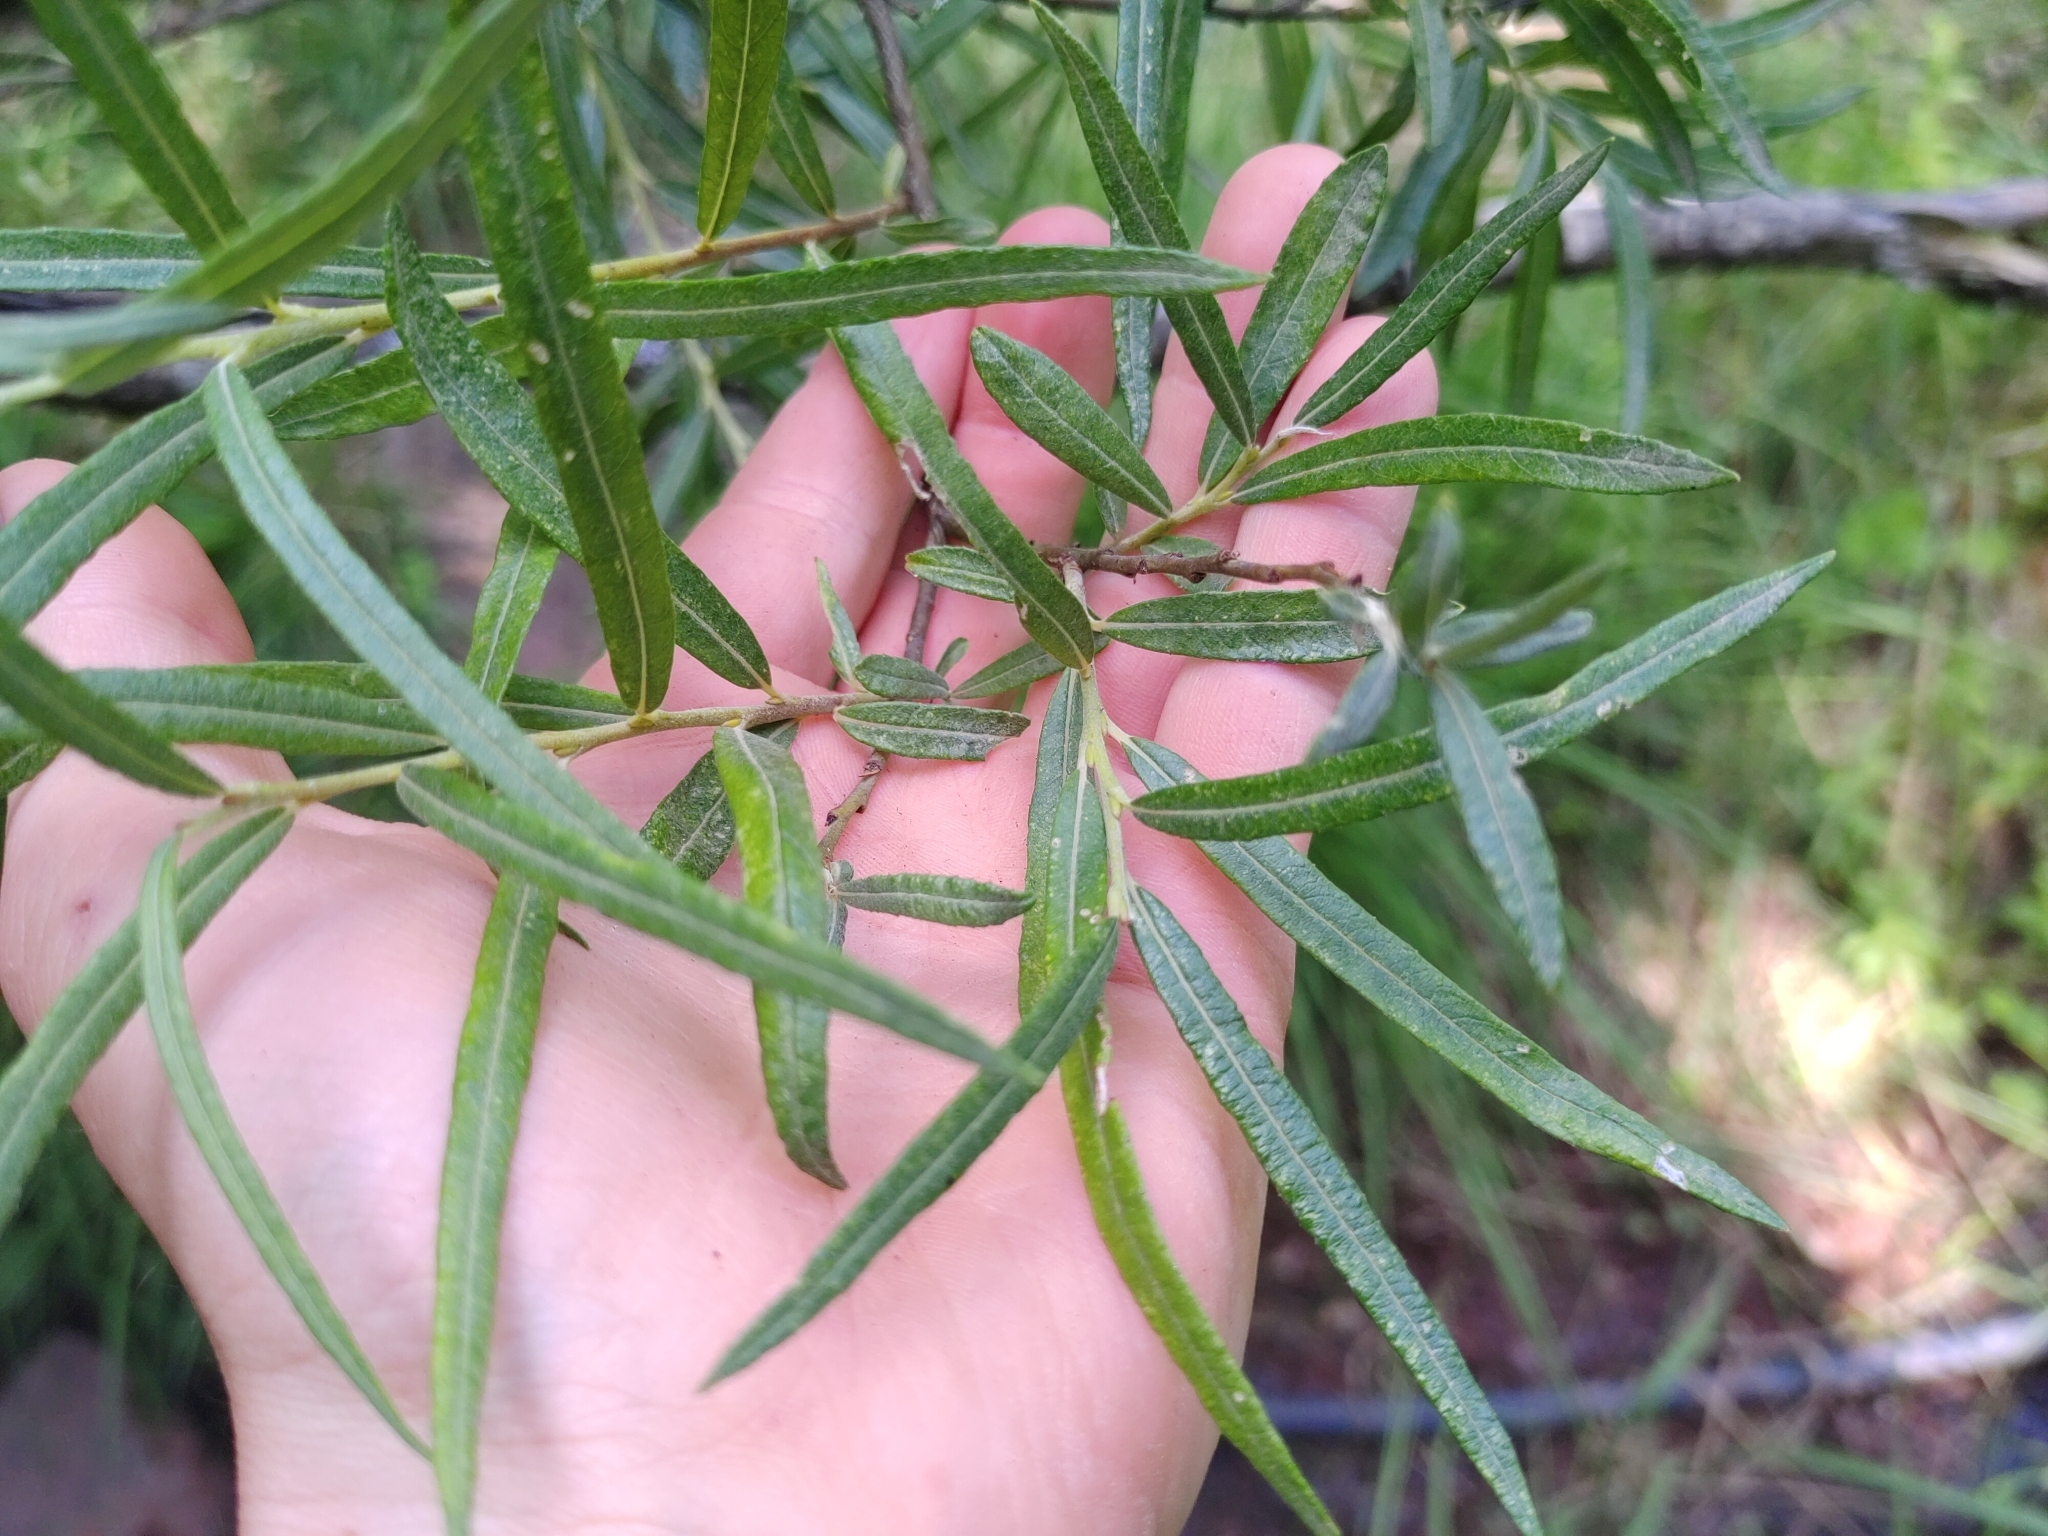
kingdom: Plantae
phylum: Tracheophyta
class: Magnoliopsida
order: Malpighiales
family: Salicaceae
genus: Salix
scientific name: Salix eleagnos
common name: Elaeagnus willow
